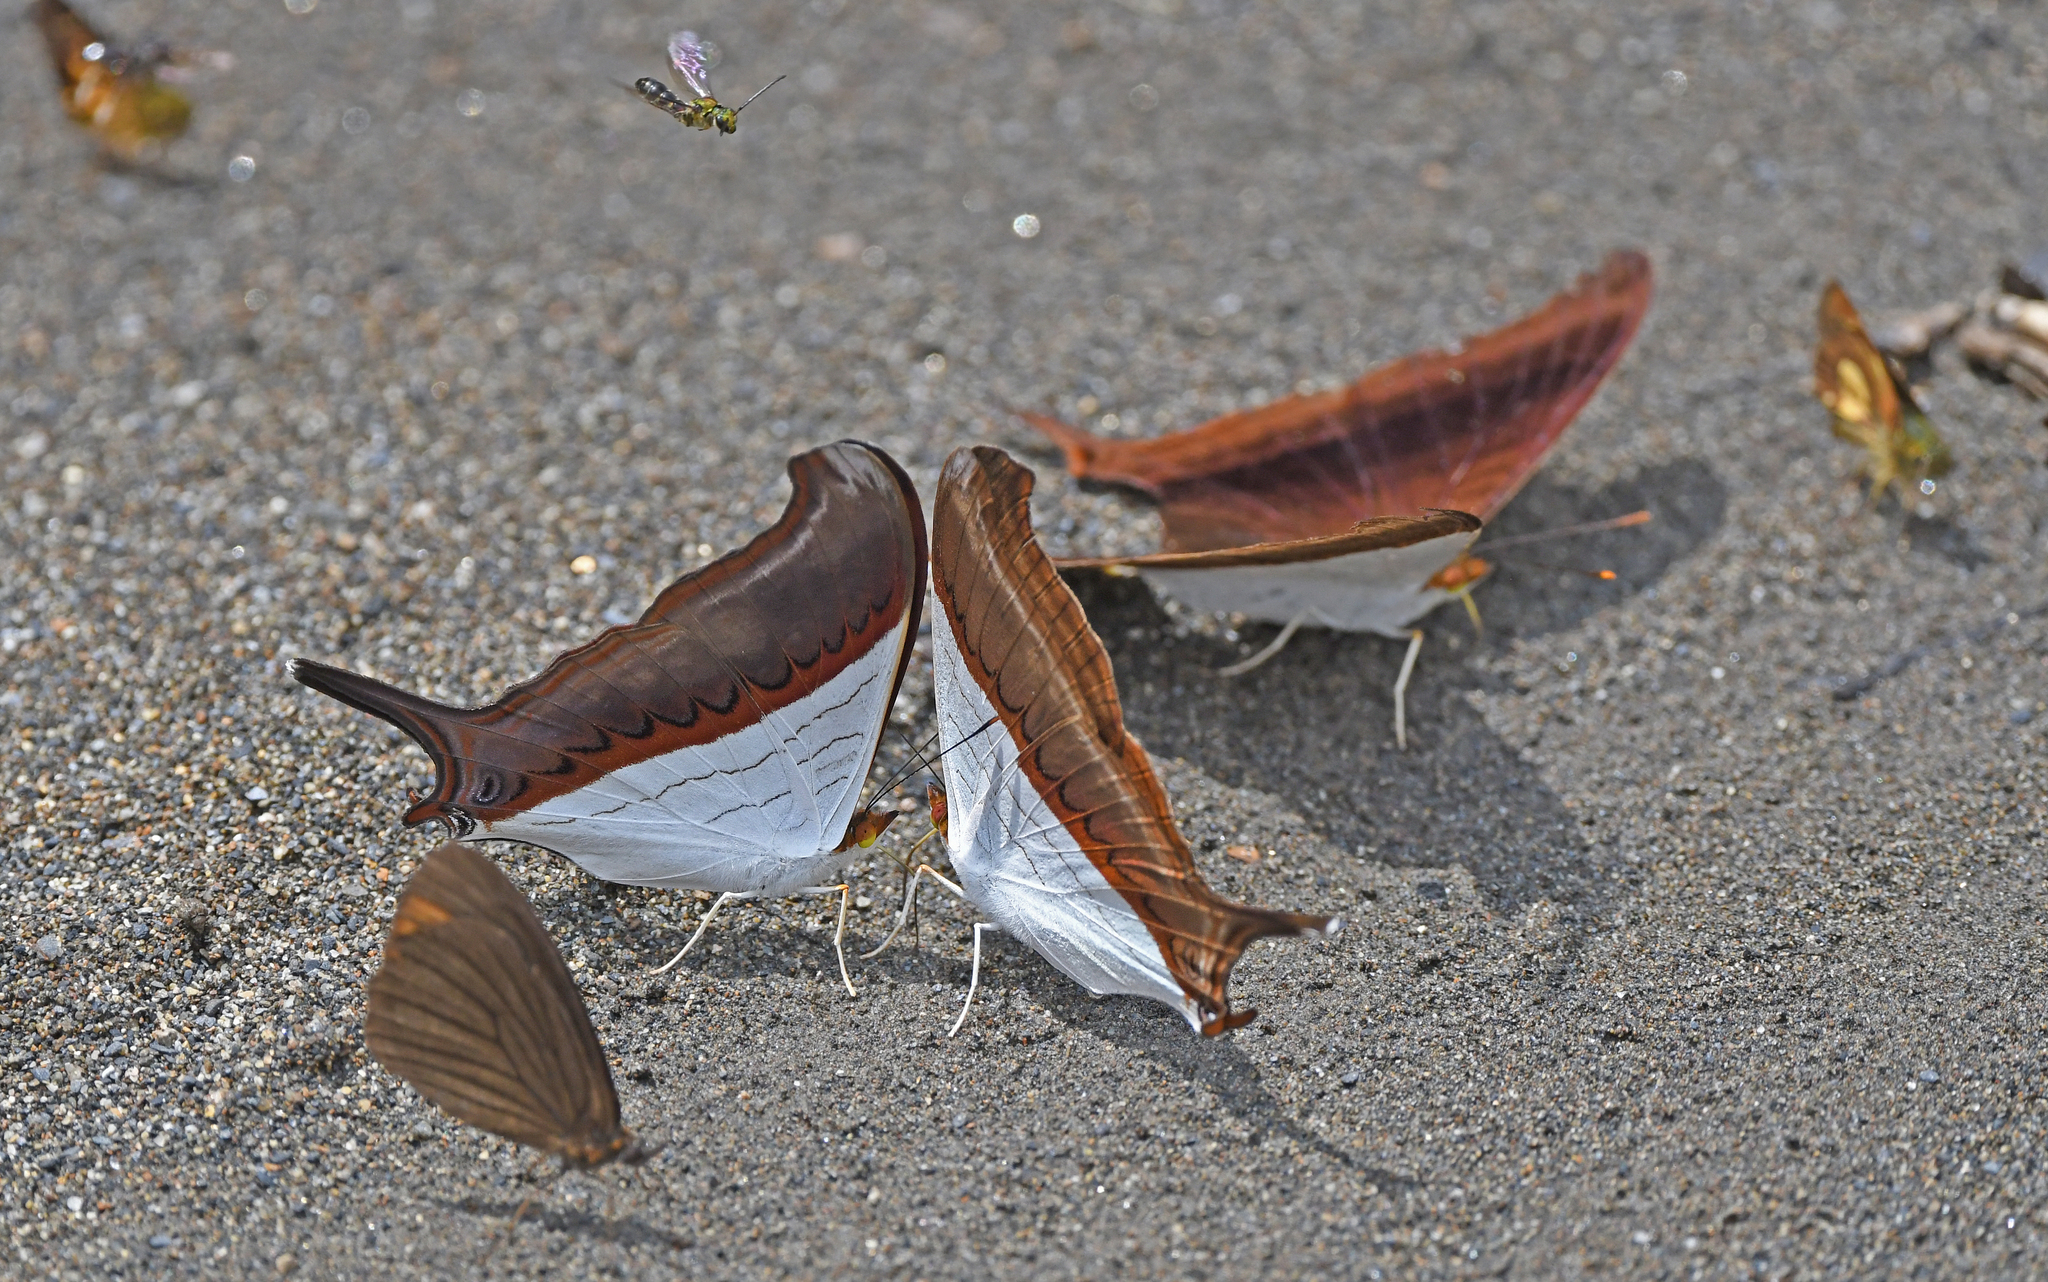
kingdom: Animalia
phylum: Arthropoda
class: Insecta
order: Lepidoptera
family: Nymphalidae
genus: Marpesia
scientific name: Marpesia zerynthia
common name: Waiter daggerwing
